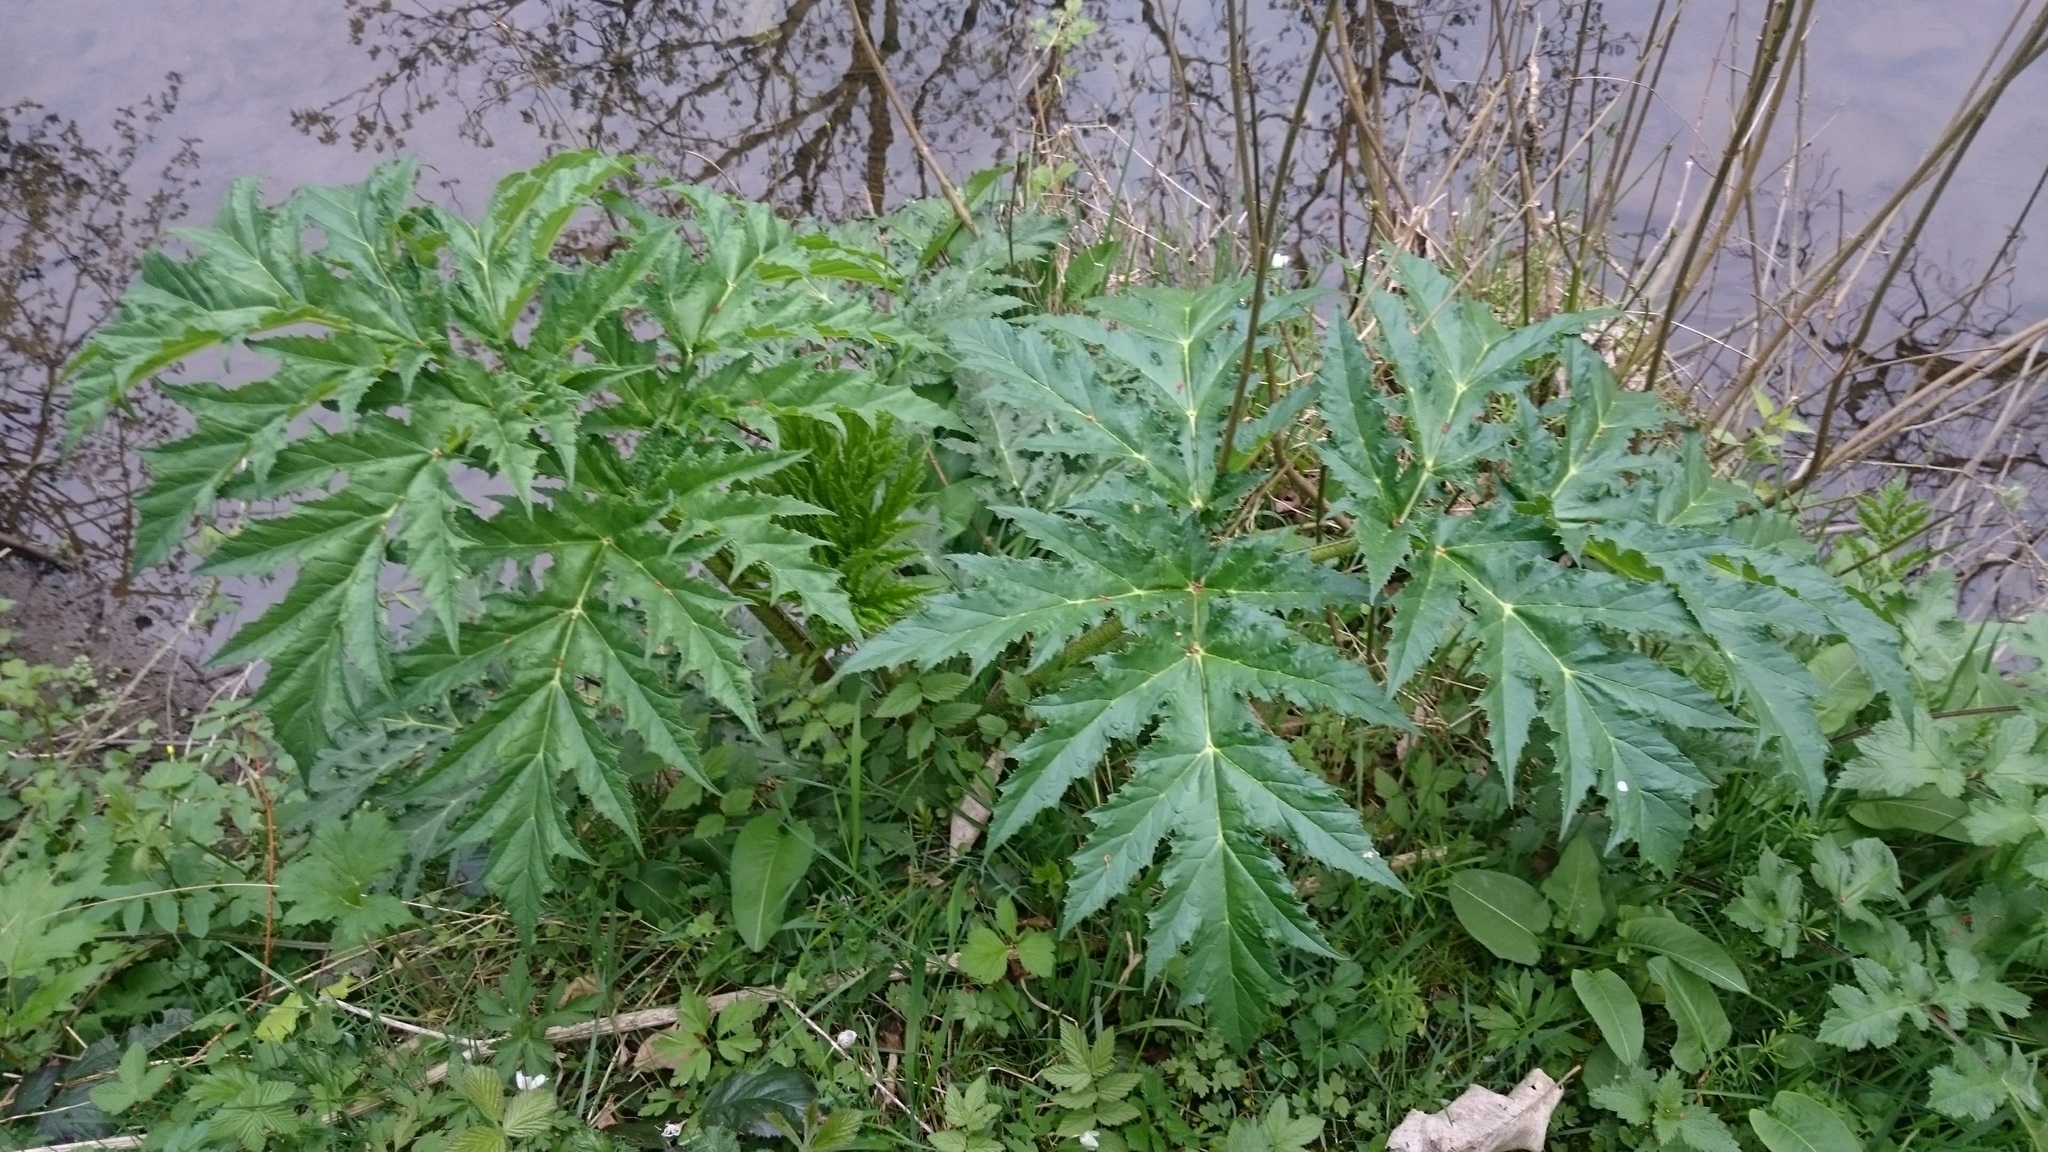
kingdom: Plantae
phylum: Tracheophyta
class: Magnoliopsida
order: Apiales
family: Apiaceae
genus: Heracleum
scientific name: Heracleum mantegazzianum
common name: Giant hogweed
